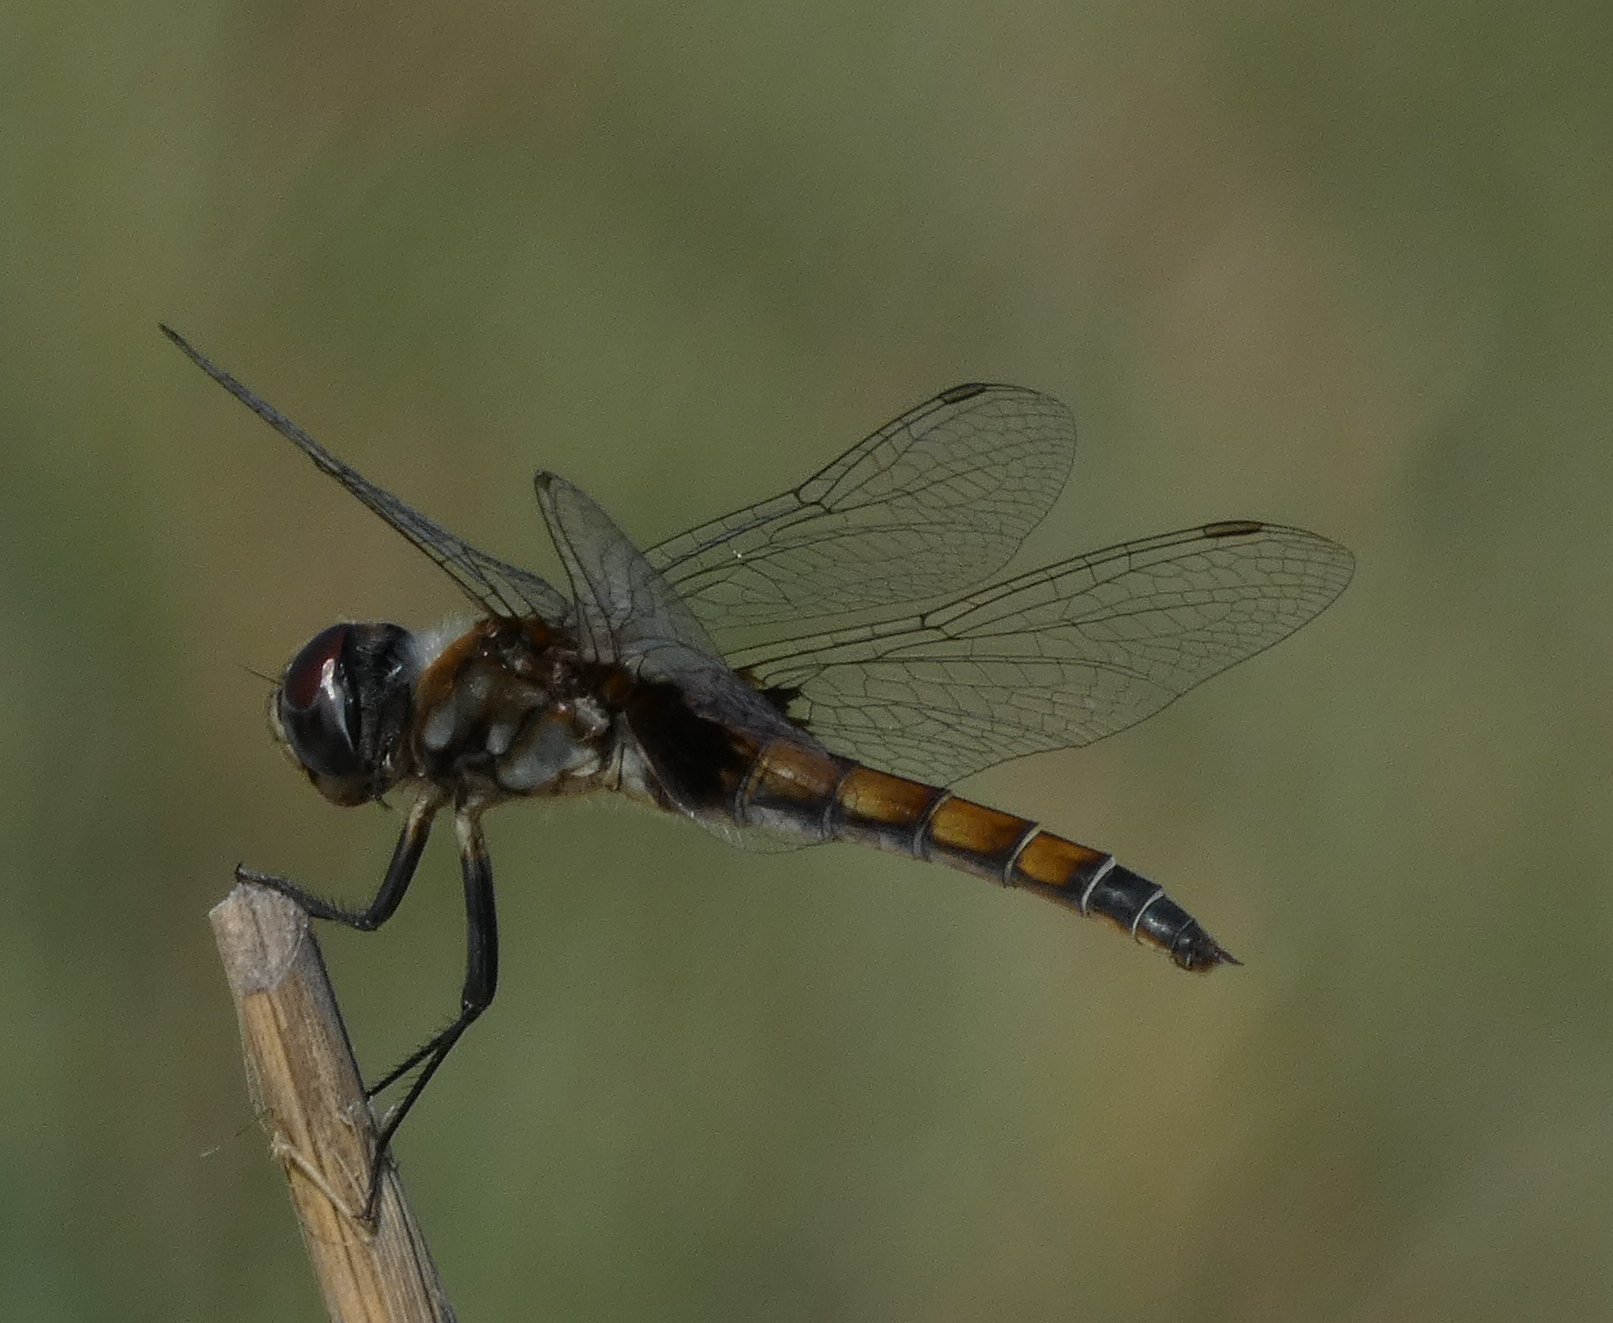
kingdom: Animalia
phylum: Arthropoda
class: Insecta
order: Odonata
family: Libellulidae
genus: Macrodiplax
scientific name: Macrodiplax balteata
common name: Marl pennant
